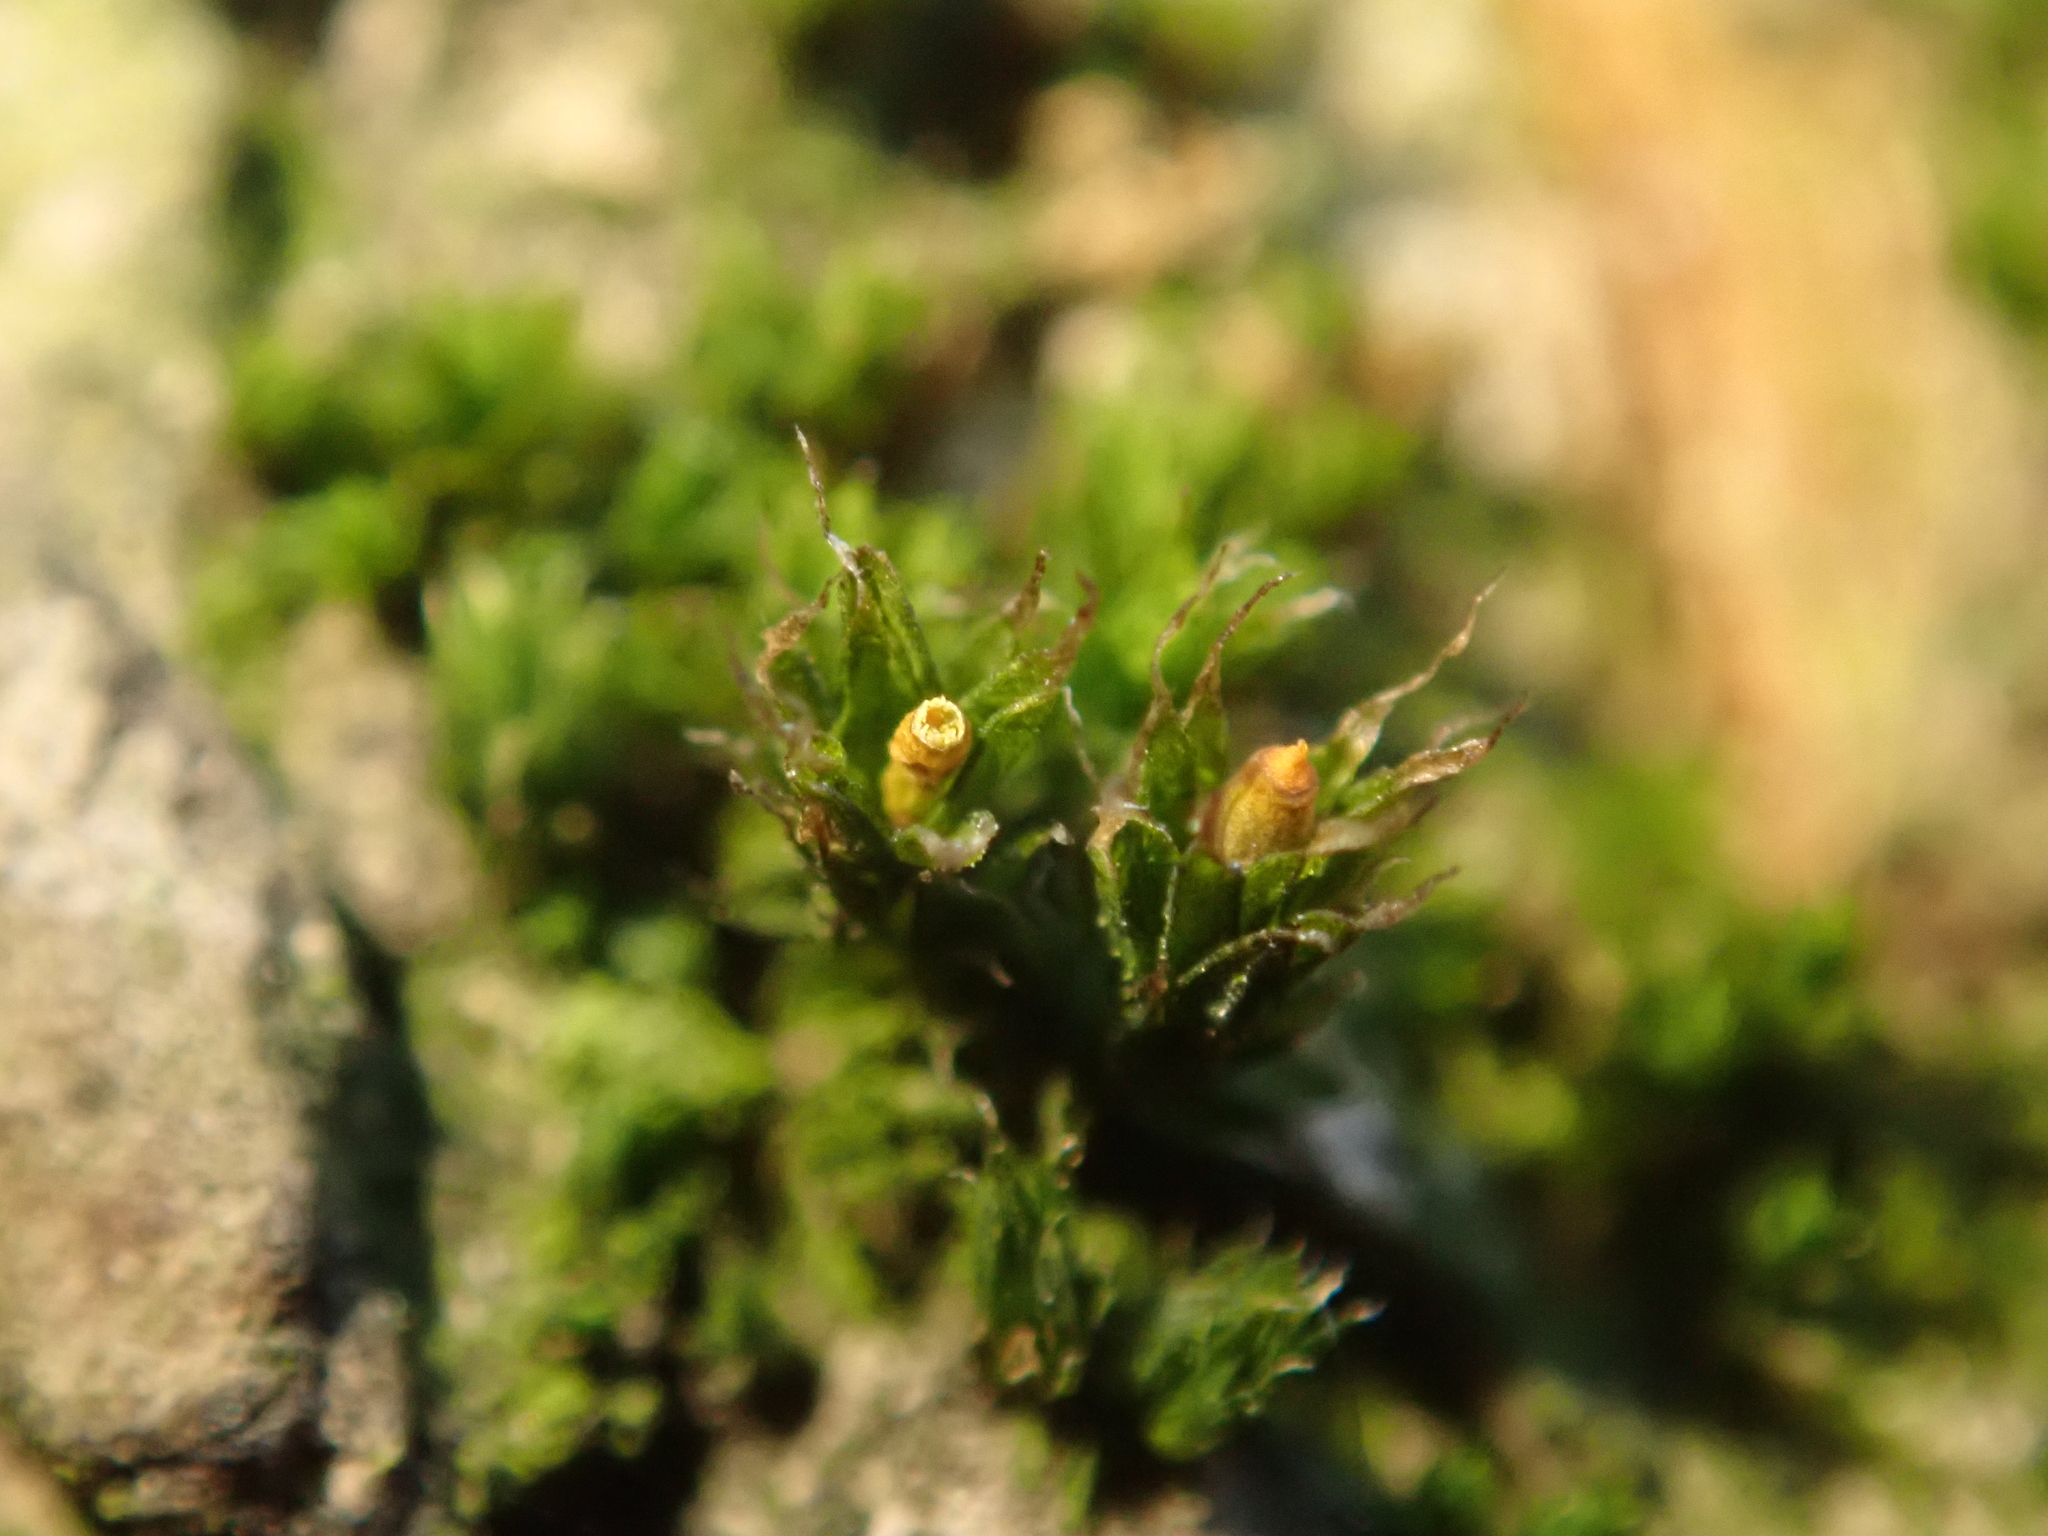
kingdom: Plantae
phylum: Bryophyta
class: Bryopsida
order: Orthotrichales
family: Orthotrichaceae
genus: Orthotrichum
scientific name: Orthotrichum diaphanum
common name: White-tipped bristle-moss
